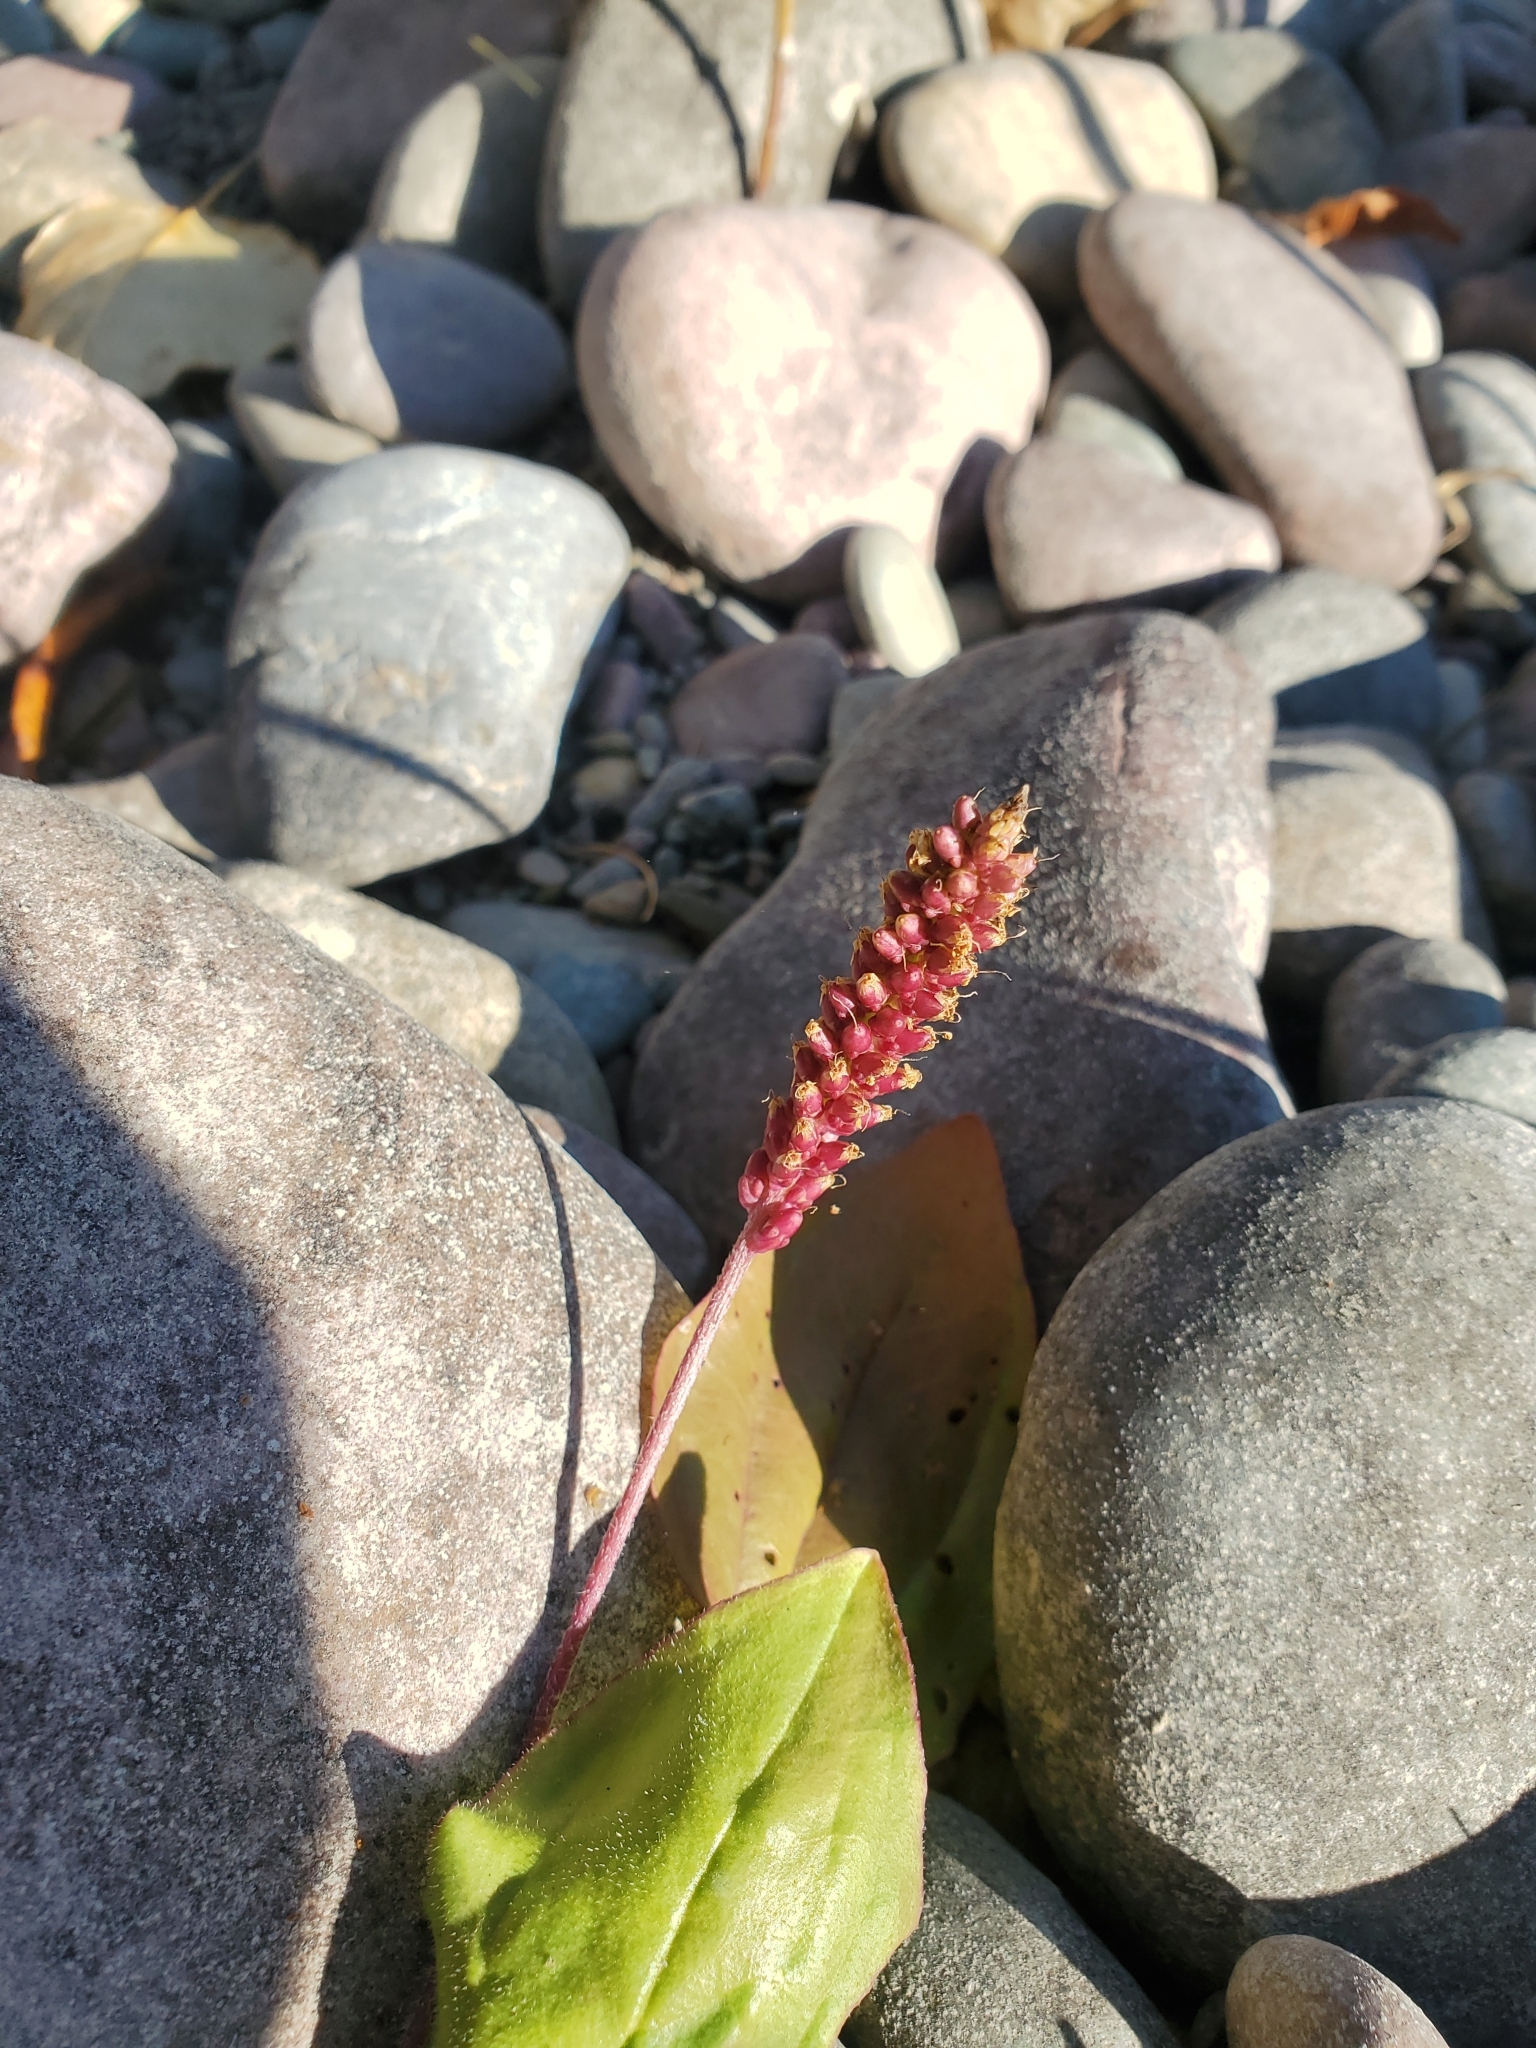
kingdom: Plantae
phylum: Tracheophyta
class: Magnoliopsida
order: Caryophyllales
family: Polygonaceae
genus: Persicaria
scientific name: Persicaria amphibia
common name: Amphibious bistort
